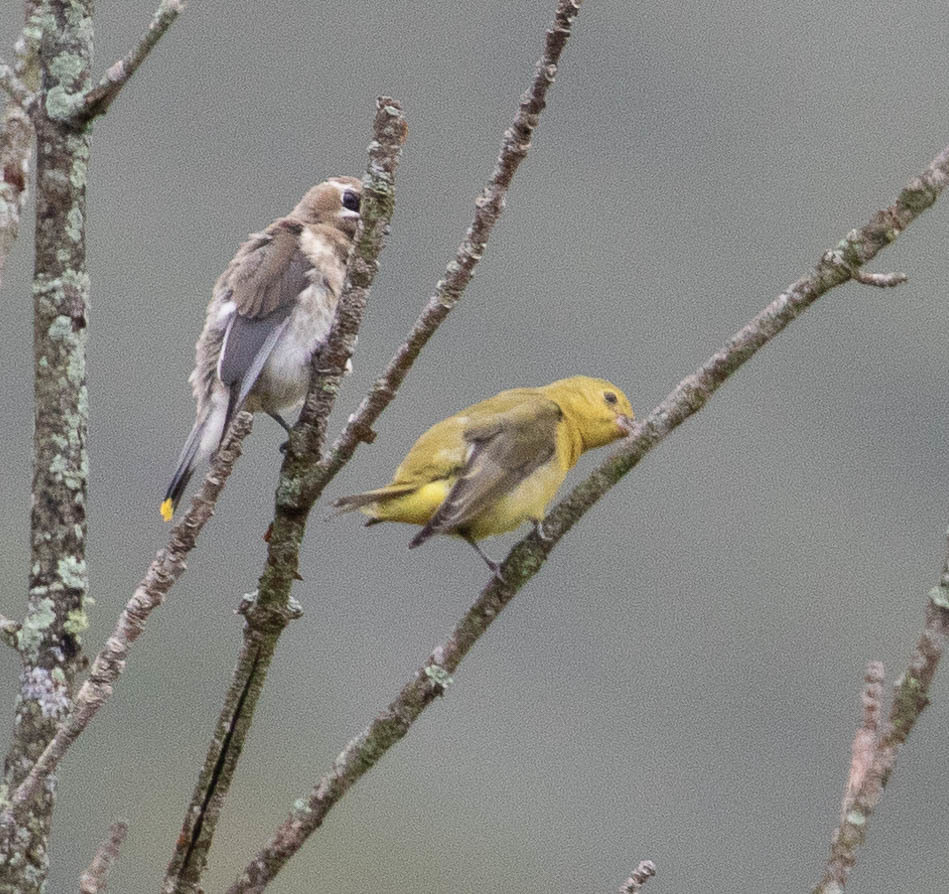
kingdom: Animalia
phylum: Chordata
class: Aves
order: Passeriformes
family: Cardinalidae
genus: Piranga
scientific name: Piranga olivacea
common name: Scarlet tanager
